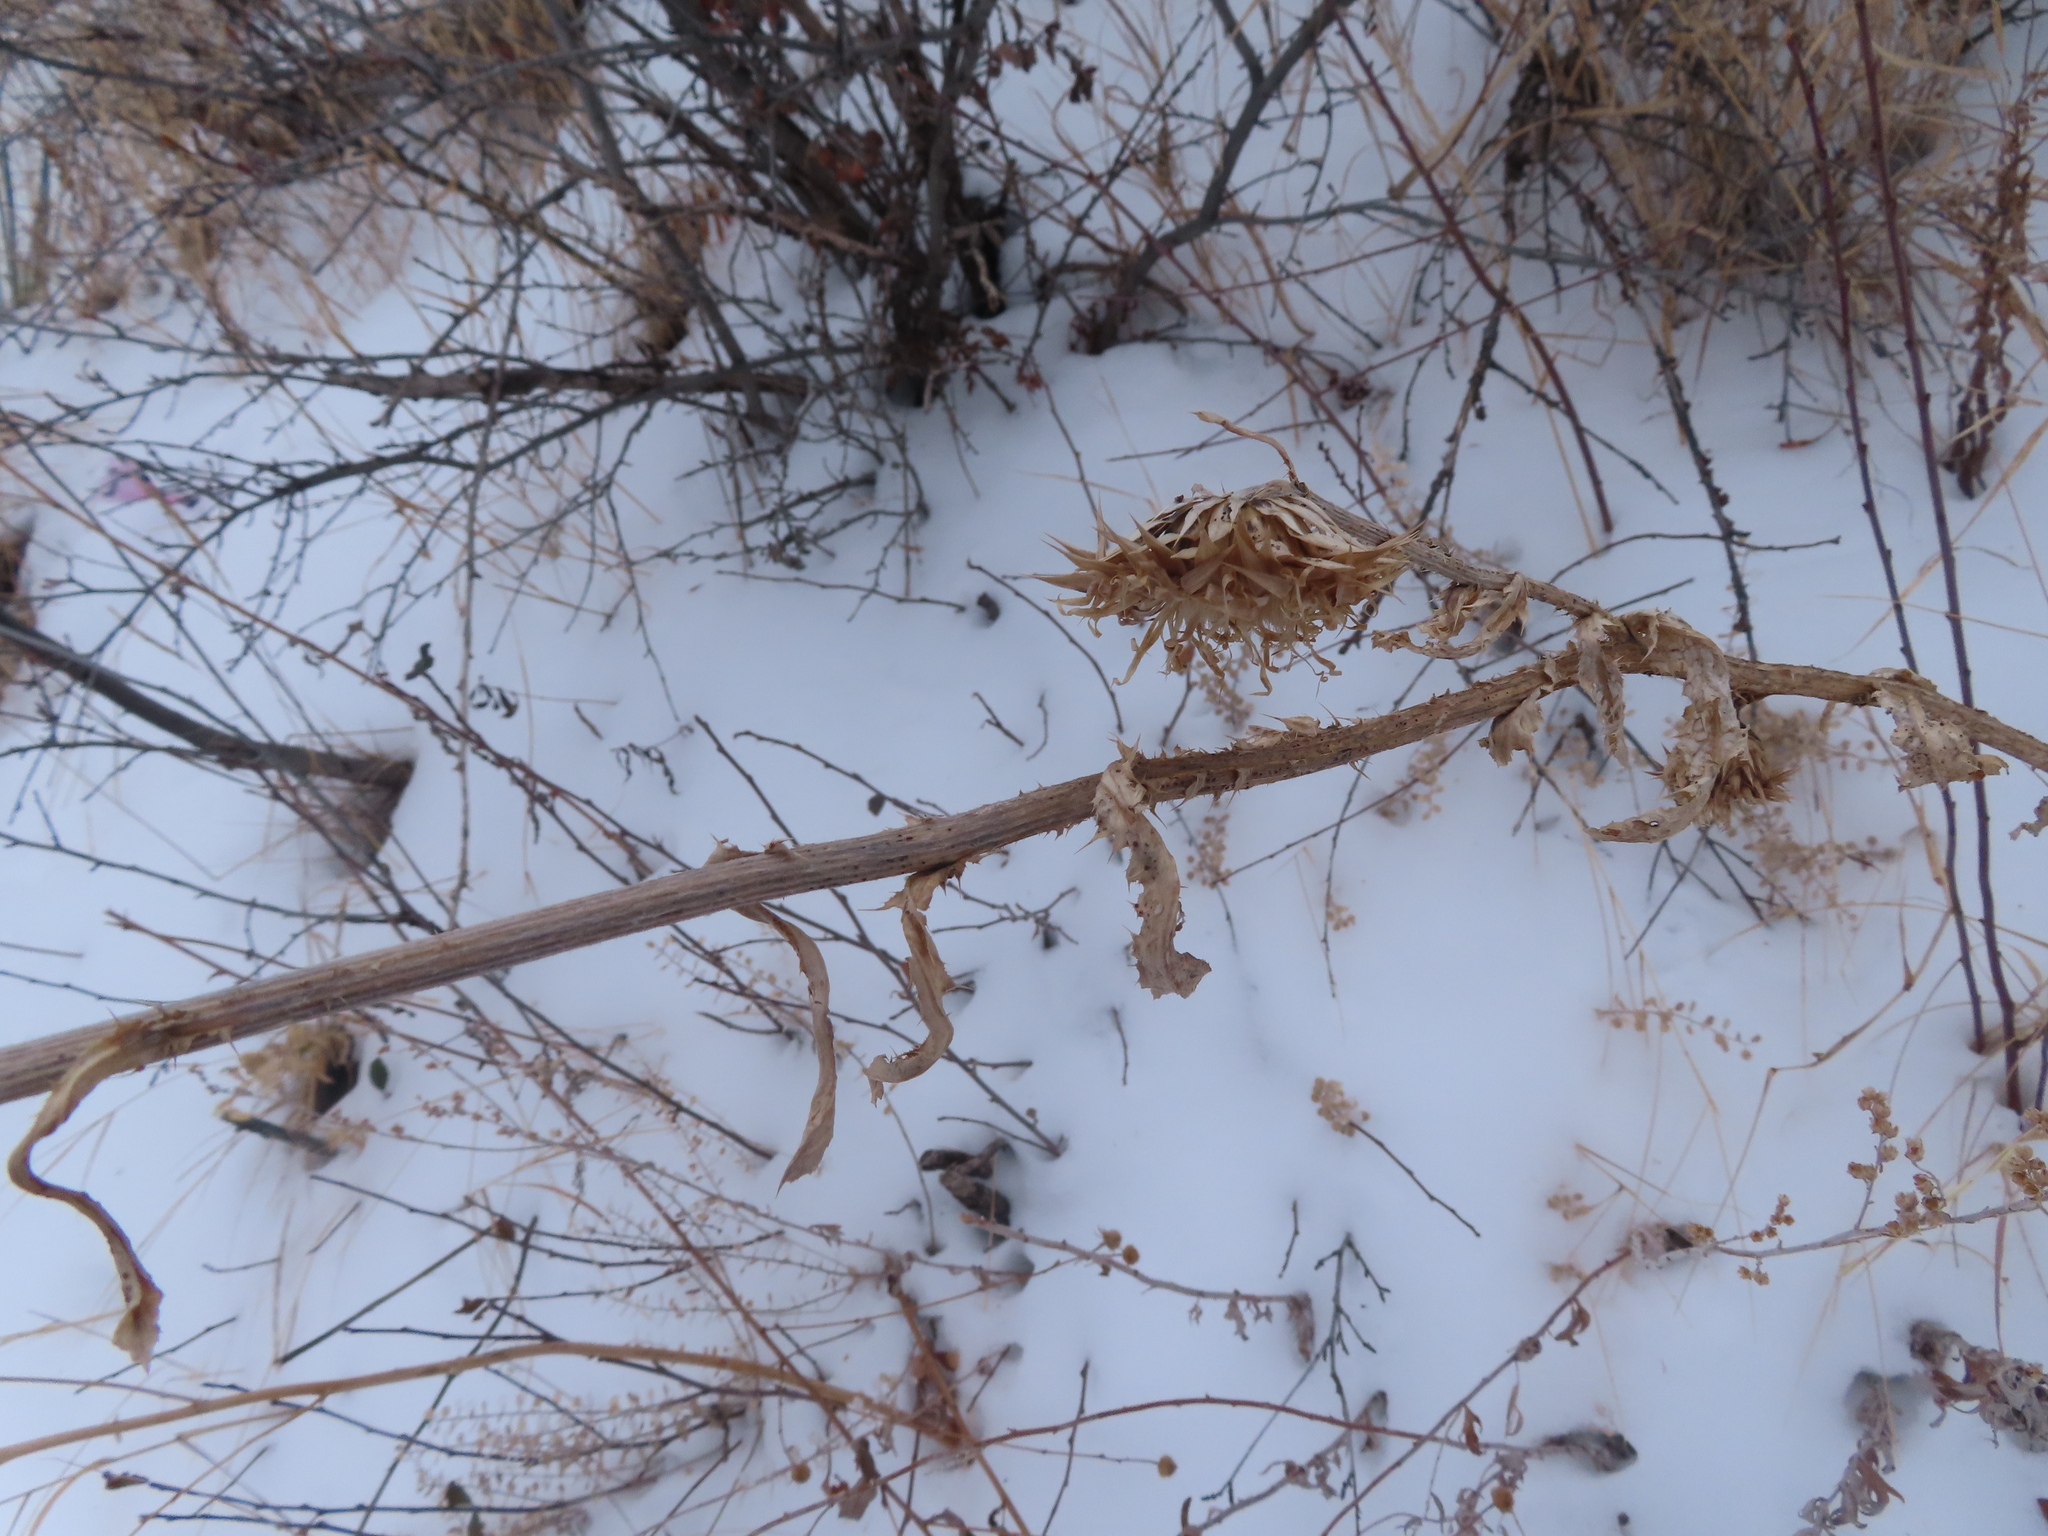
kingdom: Plantae
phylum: Tracheophyta
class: Magnoliopsida
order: Asterales
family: Asteraceae
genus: Carduus
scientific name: Carduus nutans
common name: Musk thistle
